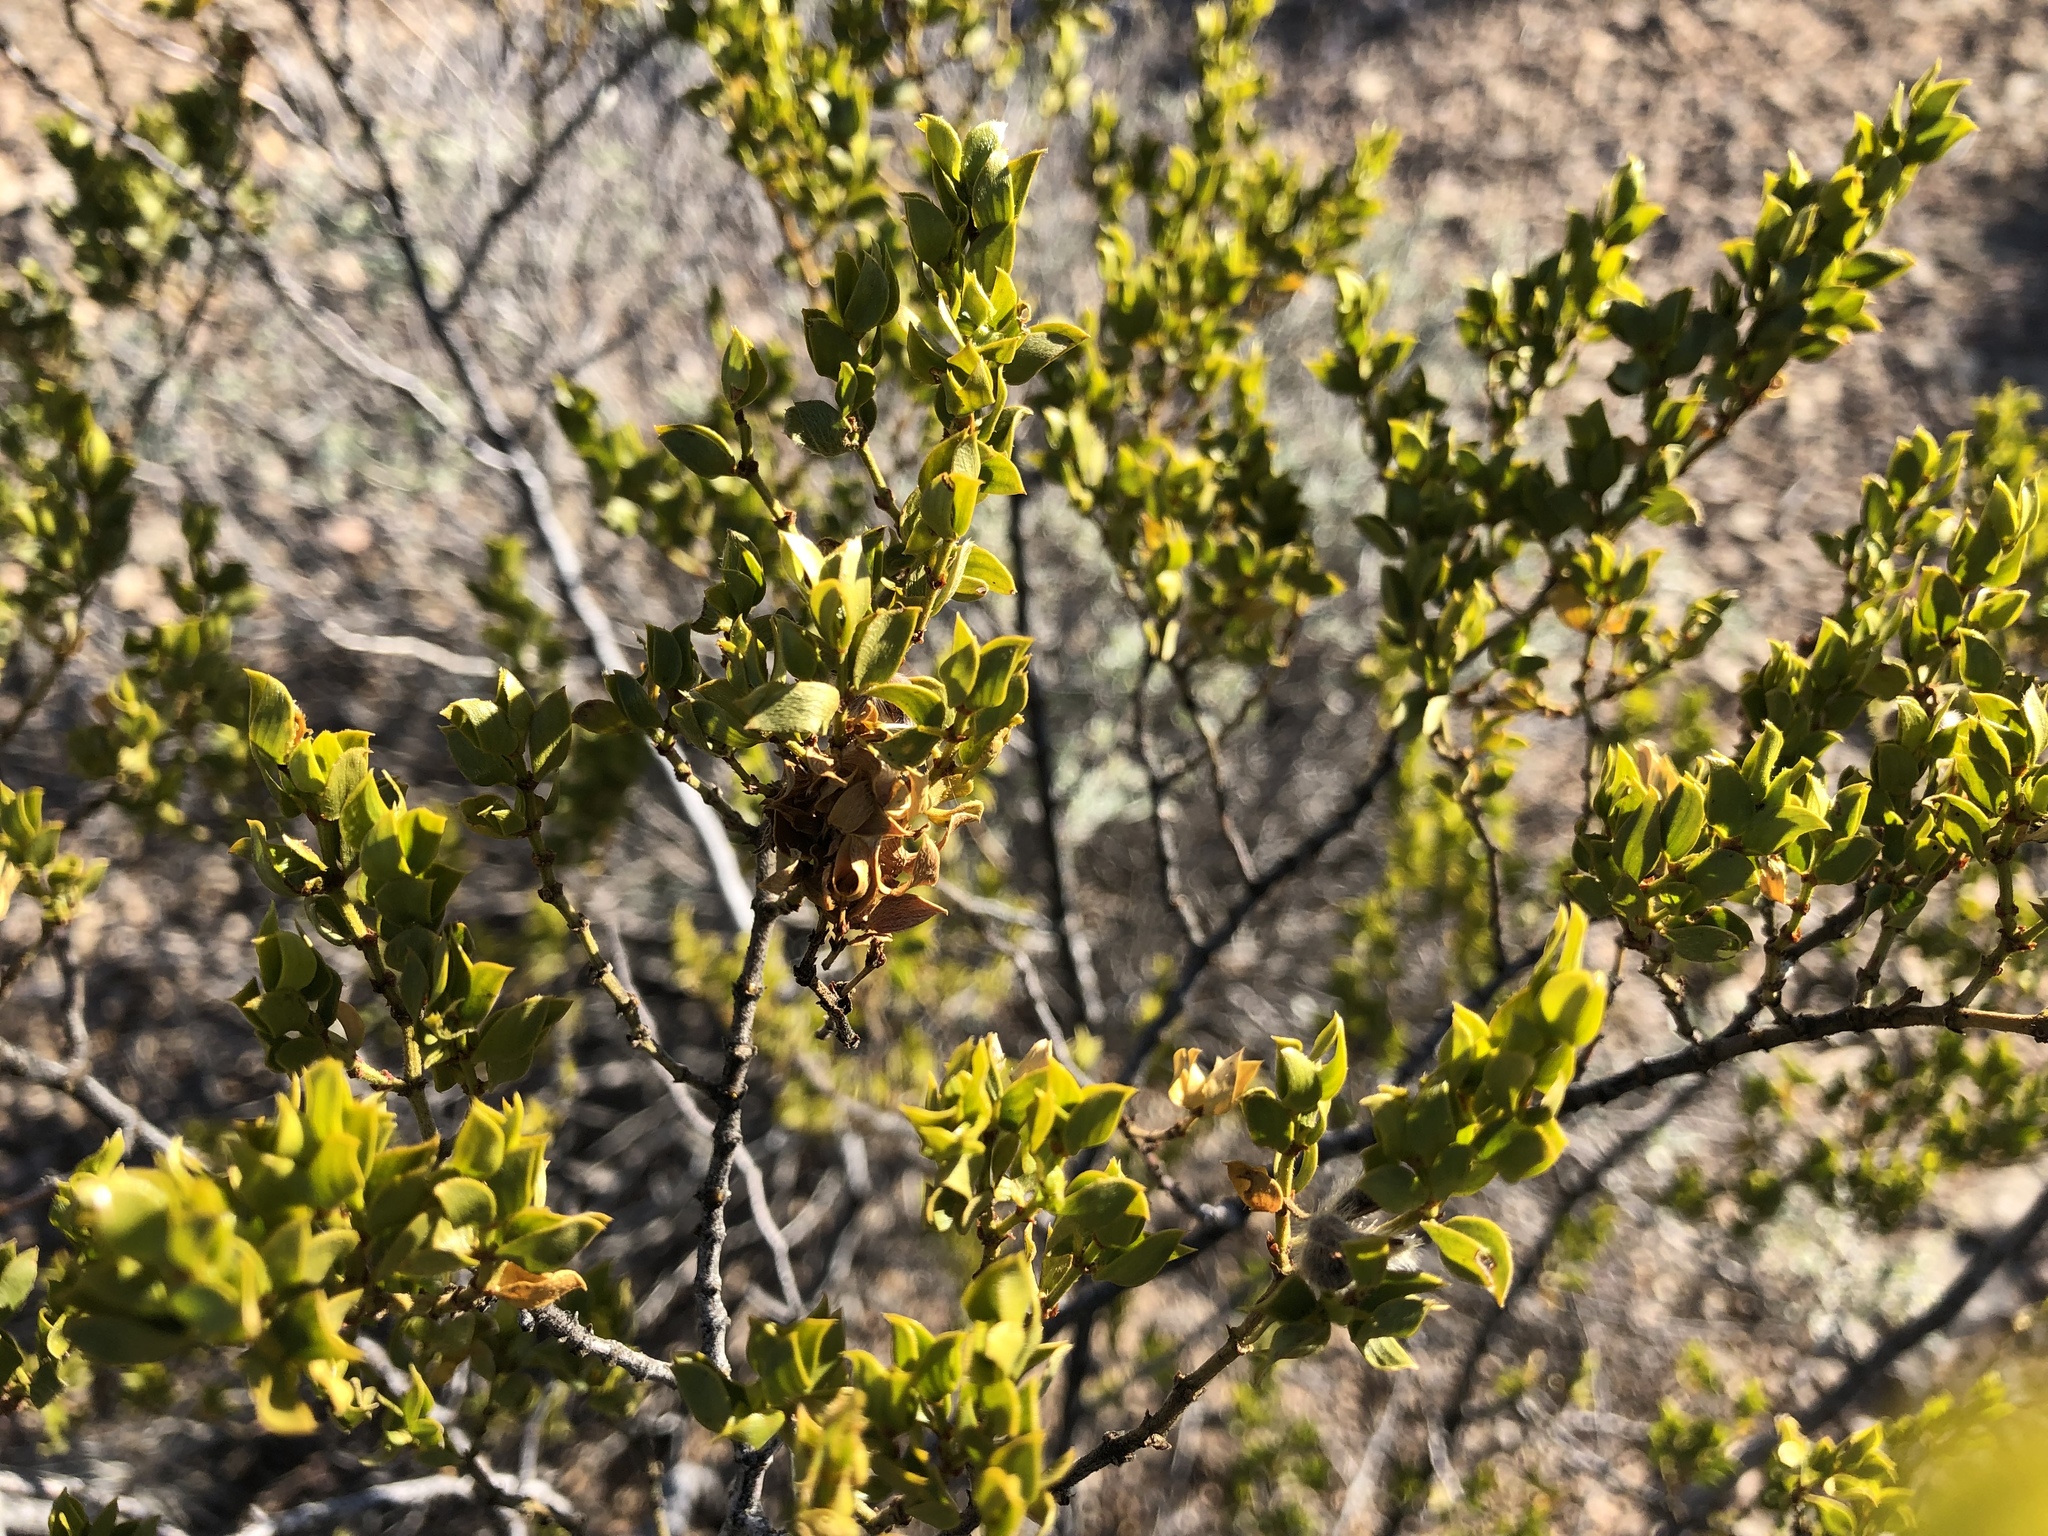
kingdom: Plantae
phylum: Tracheophyta
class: Magnoliopsida
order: Zygophyllales
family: Zygophyllaceae
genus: Larrea
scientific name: Larrea tridentata
